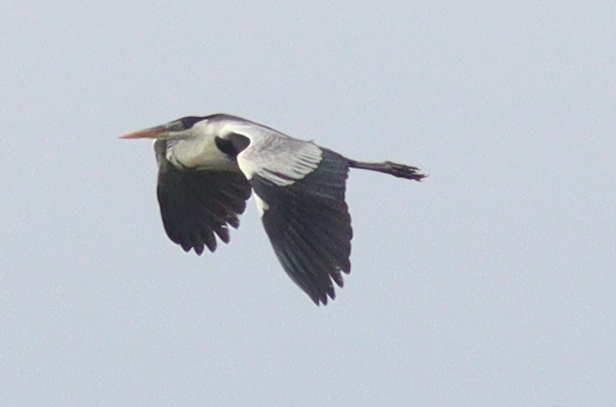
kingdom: Animalia
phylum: Chordata
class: Aves
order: Pelecaniformes
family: Ardeidae
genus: Ardea
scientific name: Ardea cocoi
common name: Cocoi heron
